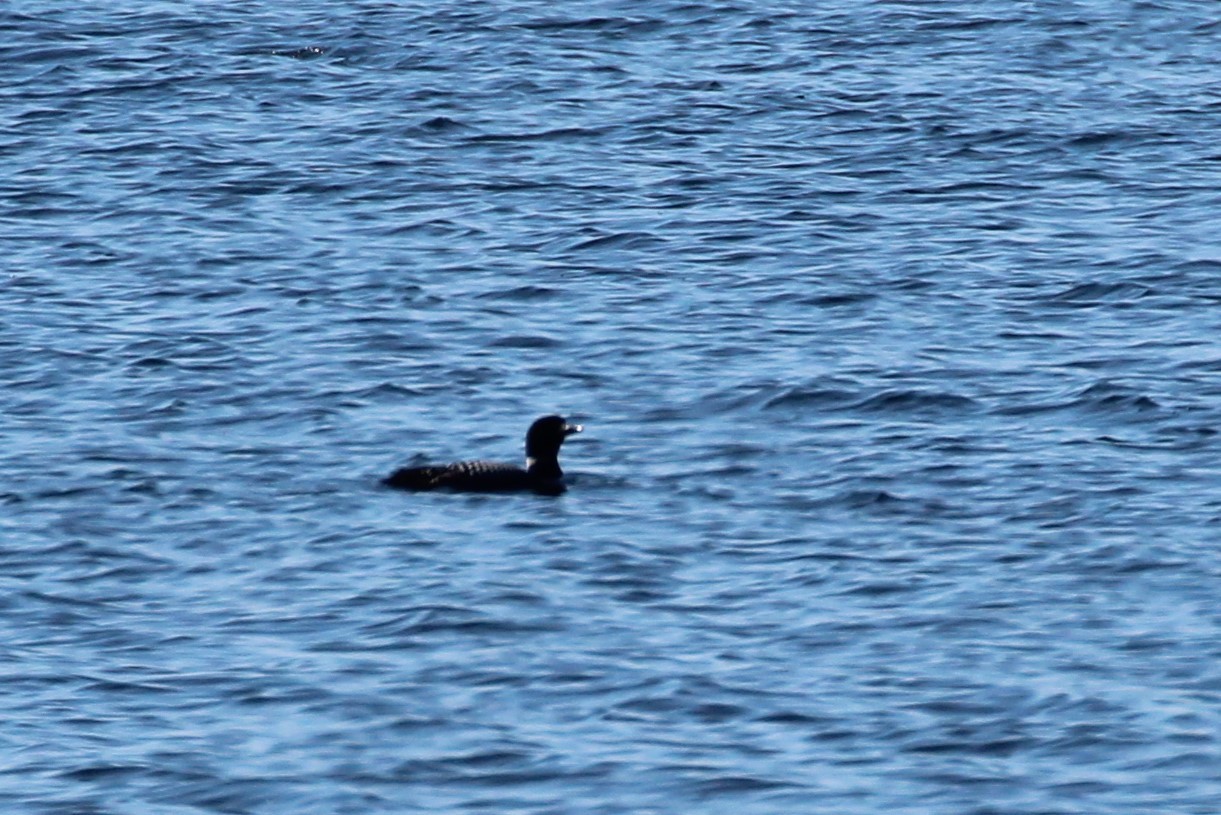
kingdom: Animalia
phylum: Chordata
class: Aves
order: Gaviiformes
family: Gaviidae
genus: Gavia
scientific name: Gavia immer
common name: Common loon
